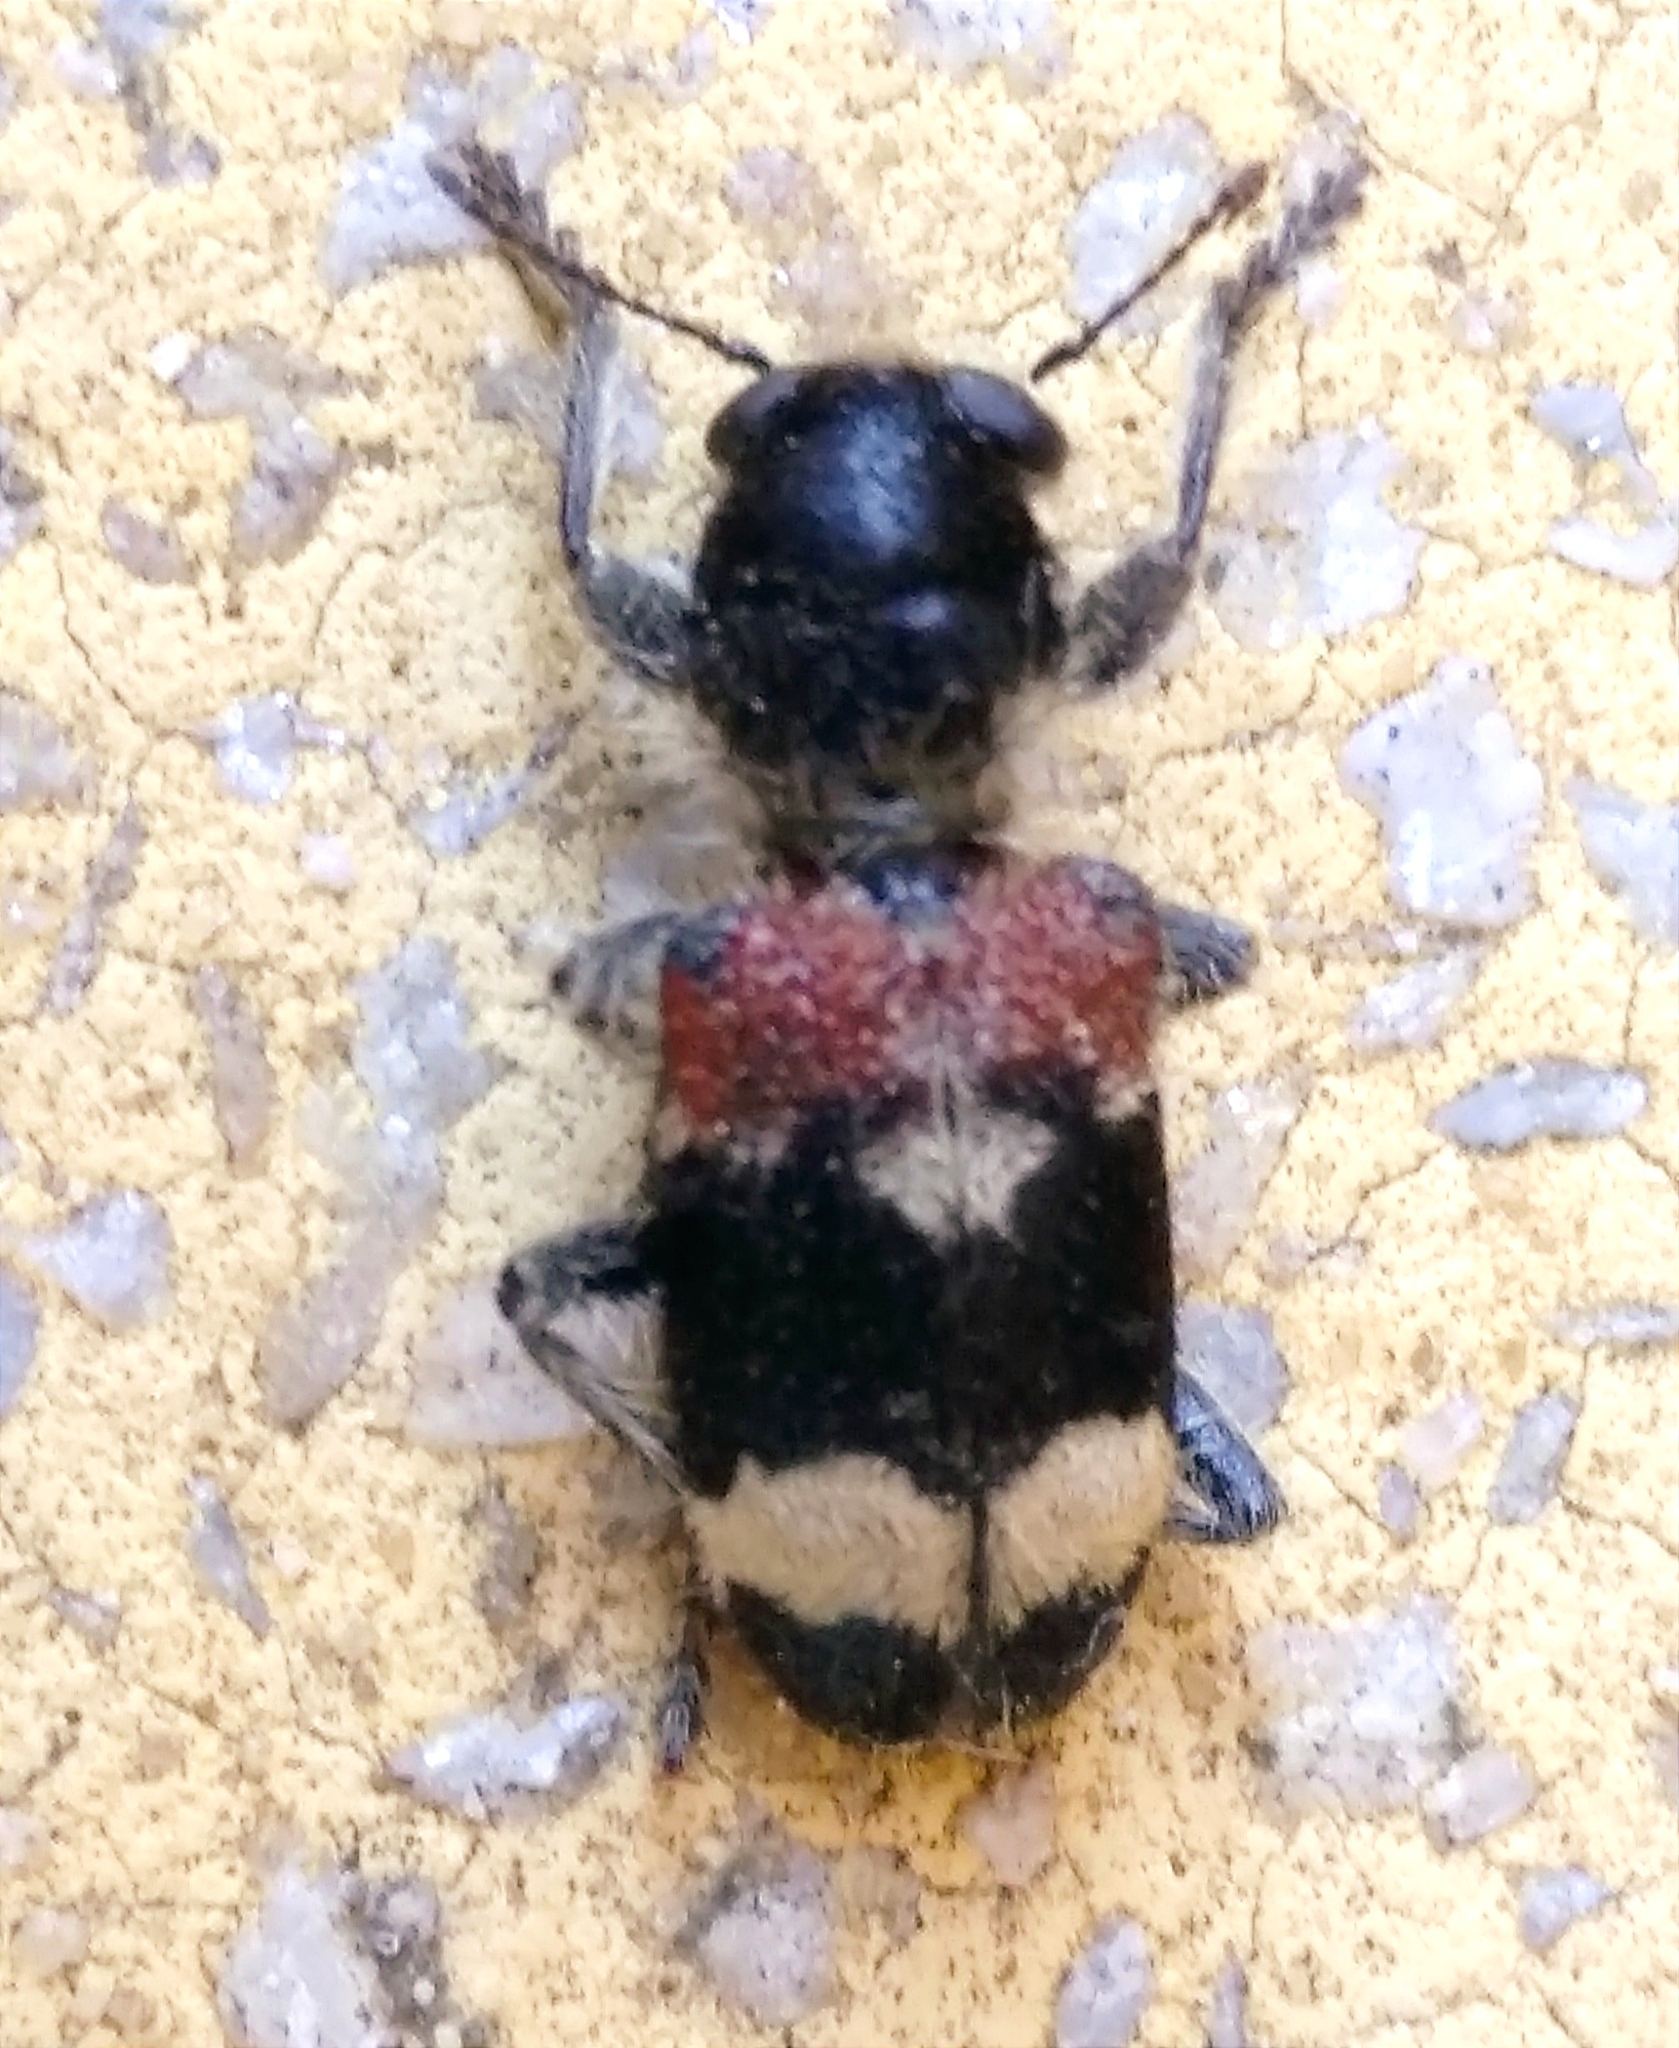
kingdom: Animalia
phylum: Arthropoda
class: Insecta
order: Coleoptera
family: Cleridae
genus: Clerus
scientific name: Clerus mutillarius
